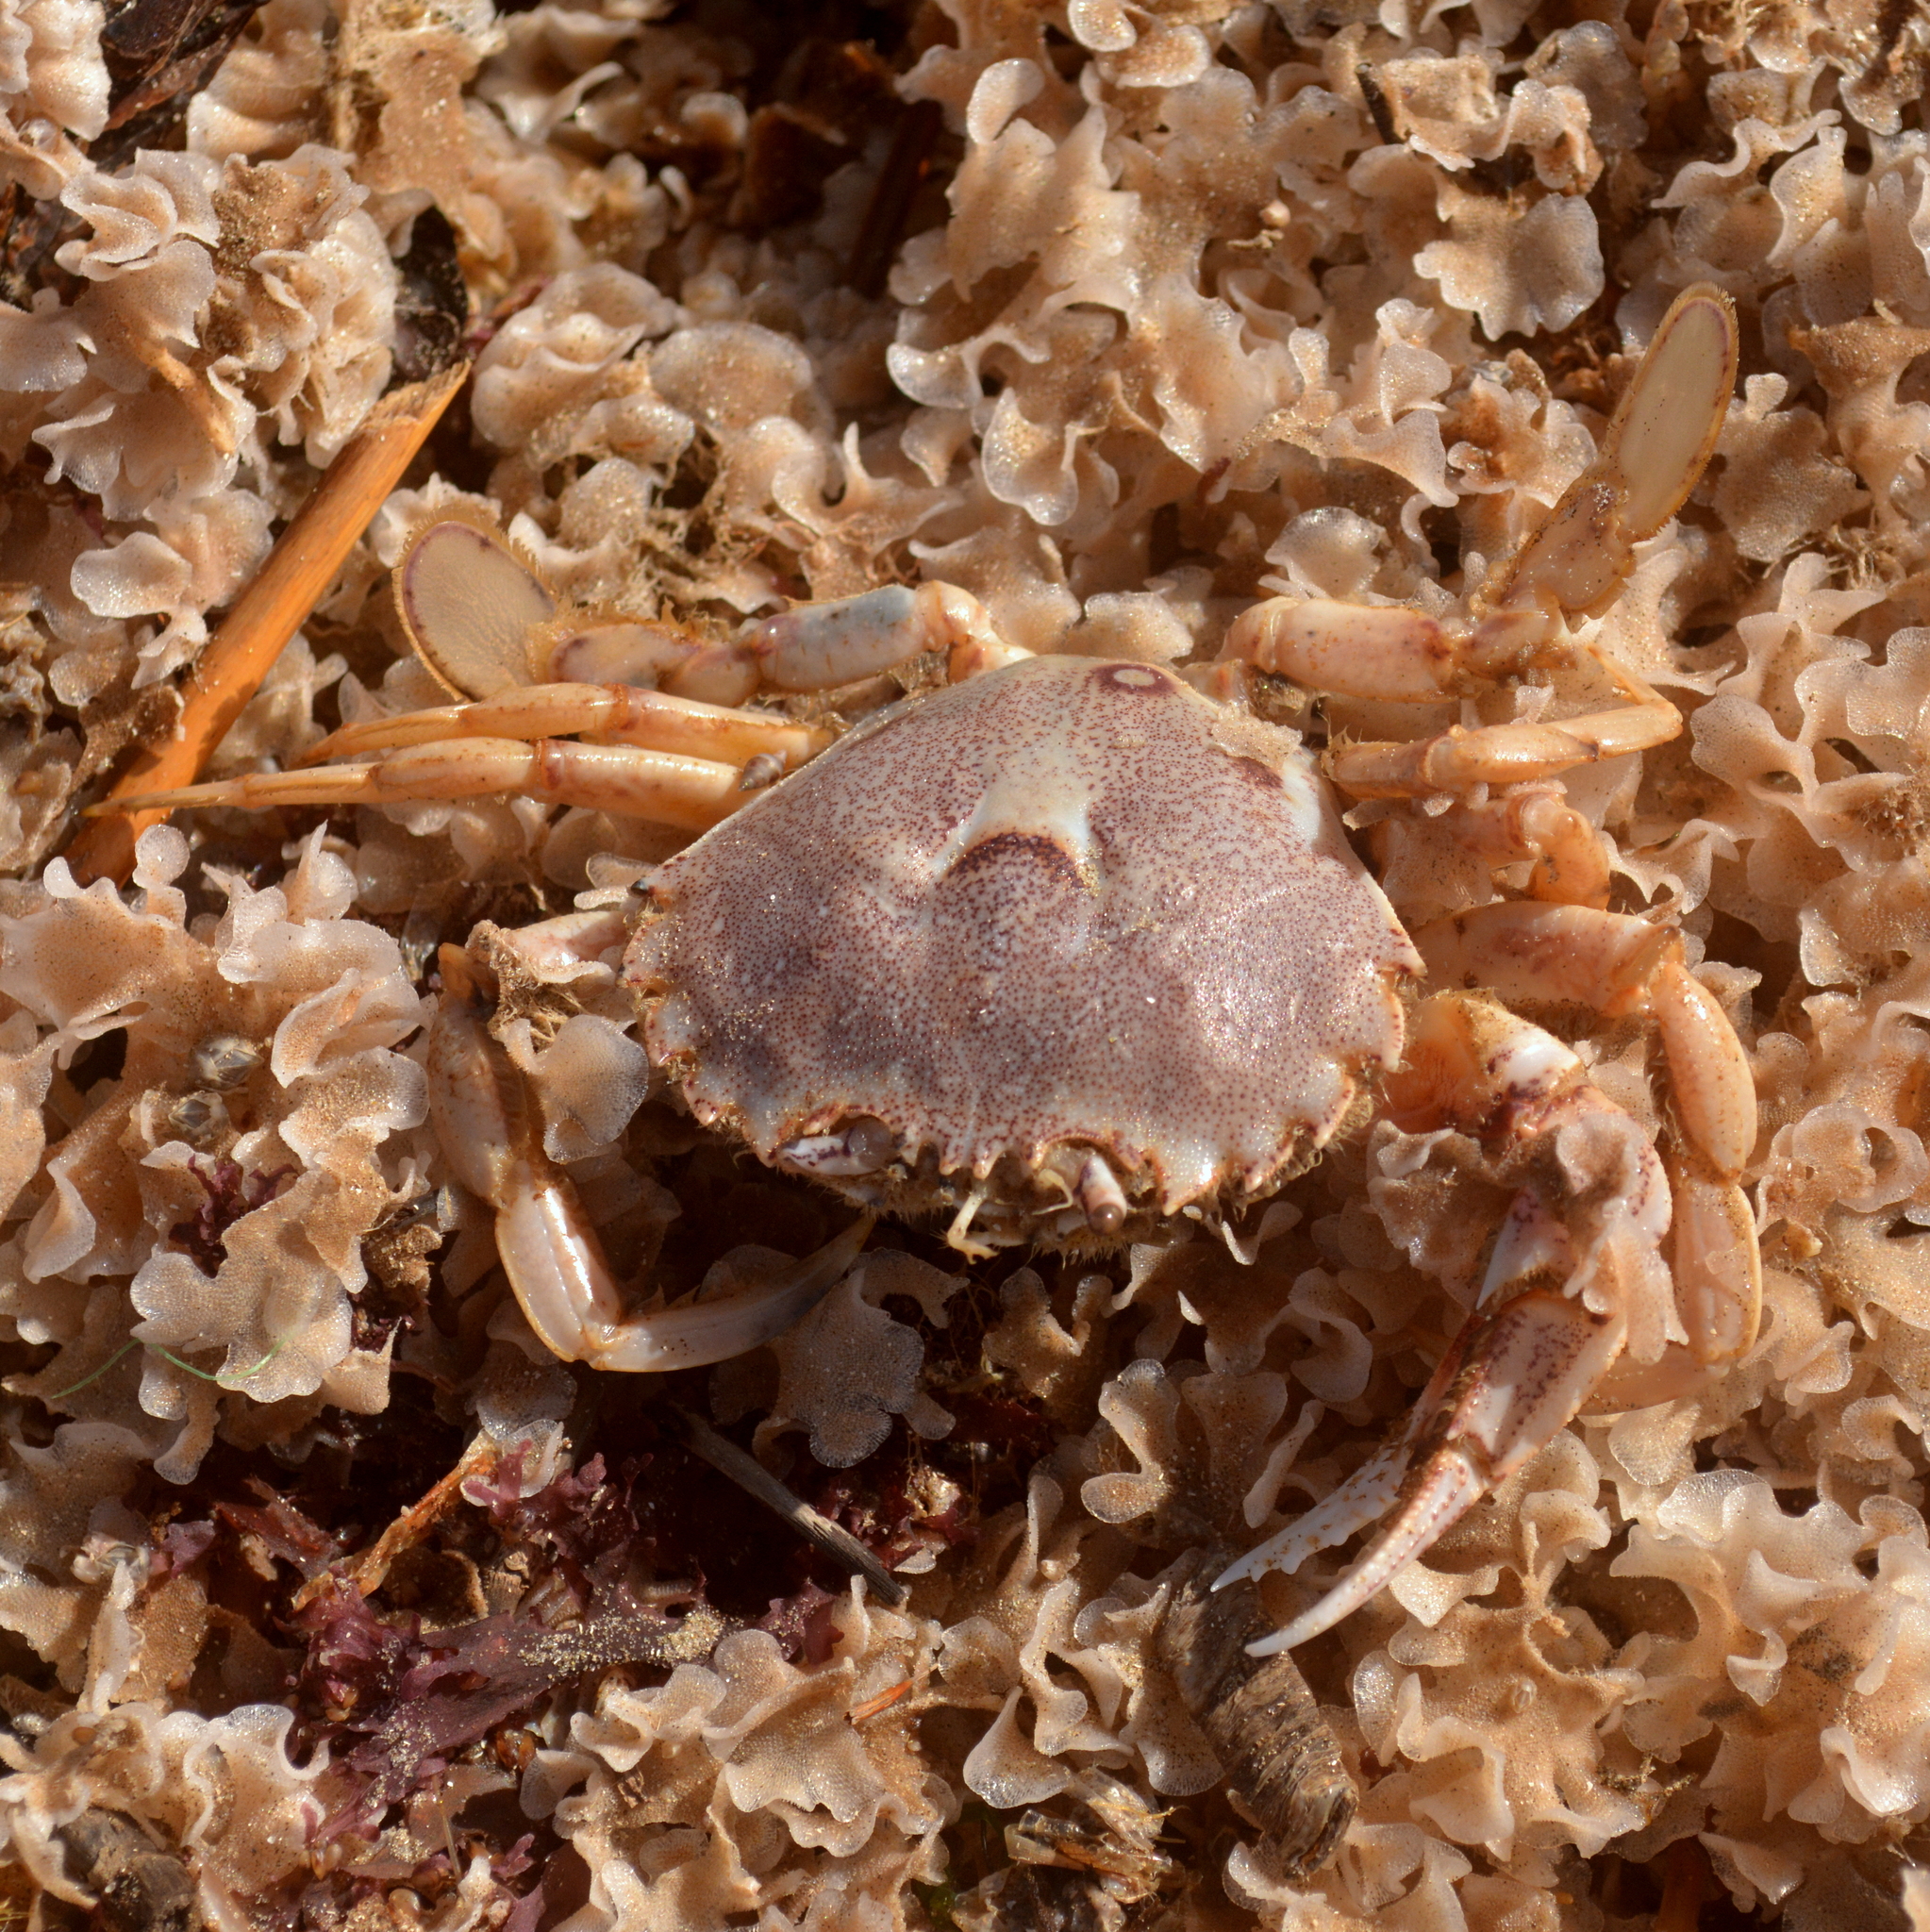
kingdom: Animalia
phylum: Arthropoda
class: Malacostraca
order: Decapoda
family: Ovalipidae
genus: Ovalipes
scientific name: Ovalipes trimaculatus
